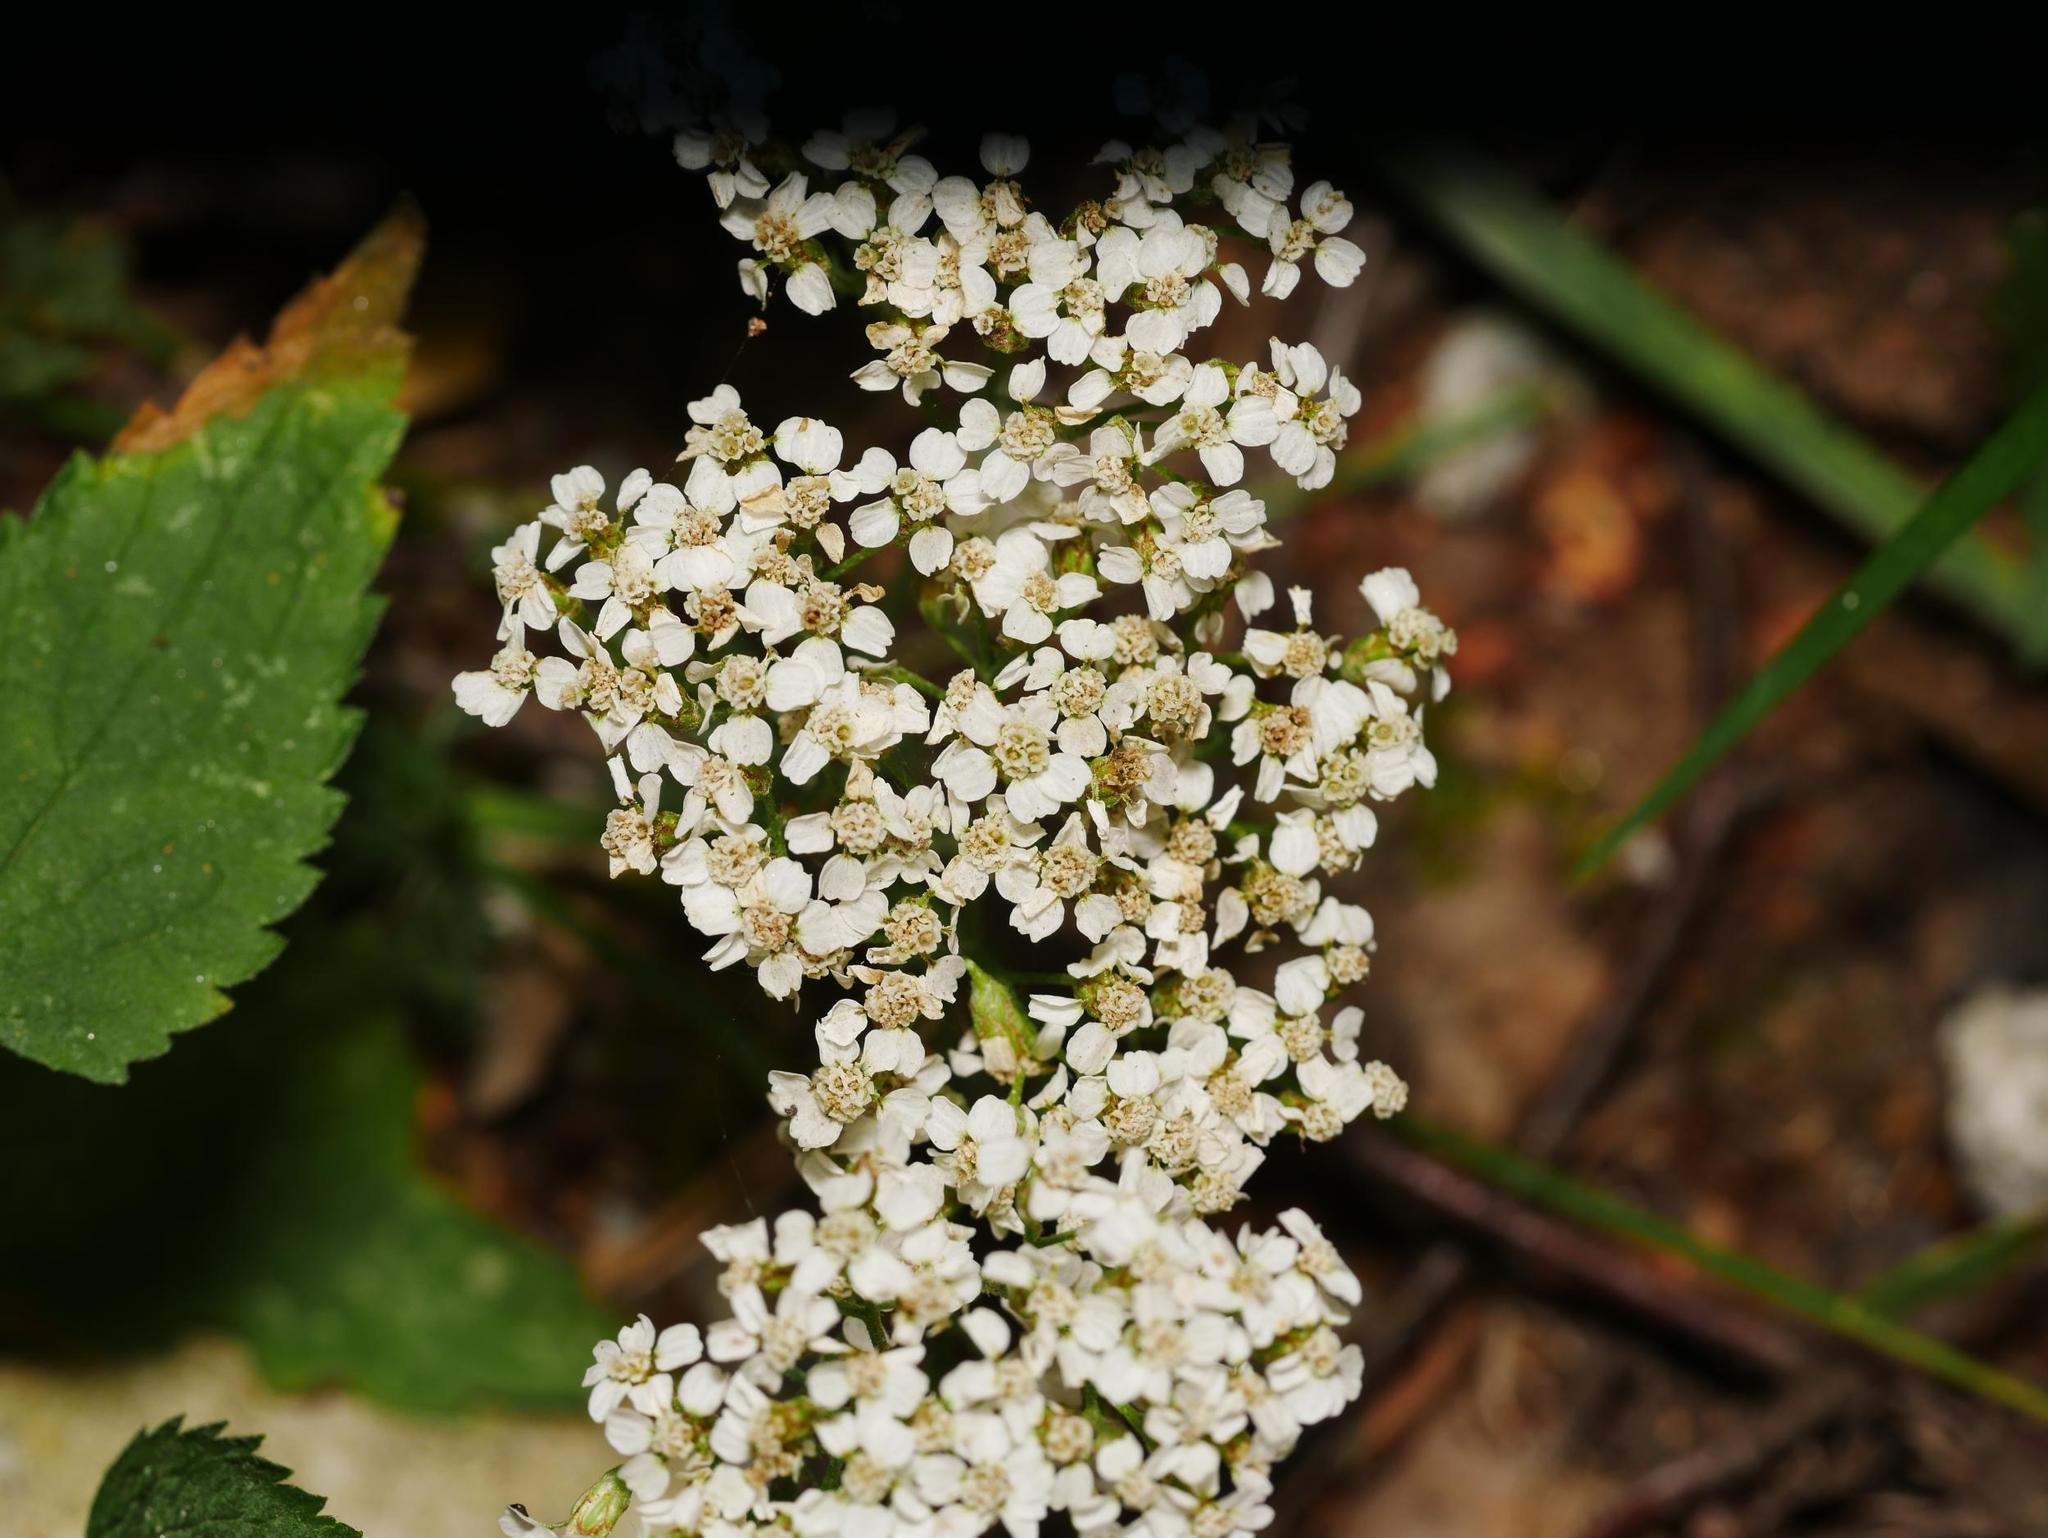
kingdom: Plantae
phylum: Tracheophyta
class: Magnoliopsida
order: Asterales
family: Asteraceae
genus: Achillea
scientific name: Achillea millefolium
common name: Yarrow
